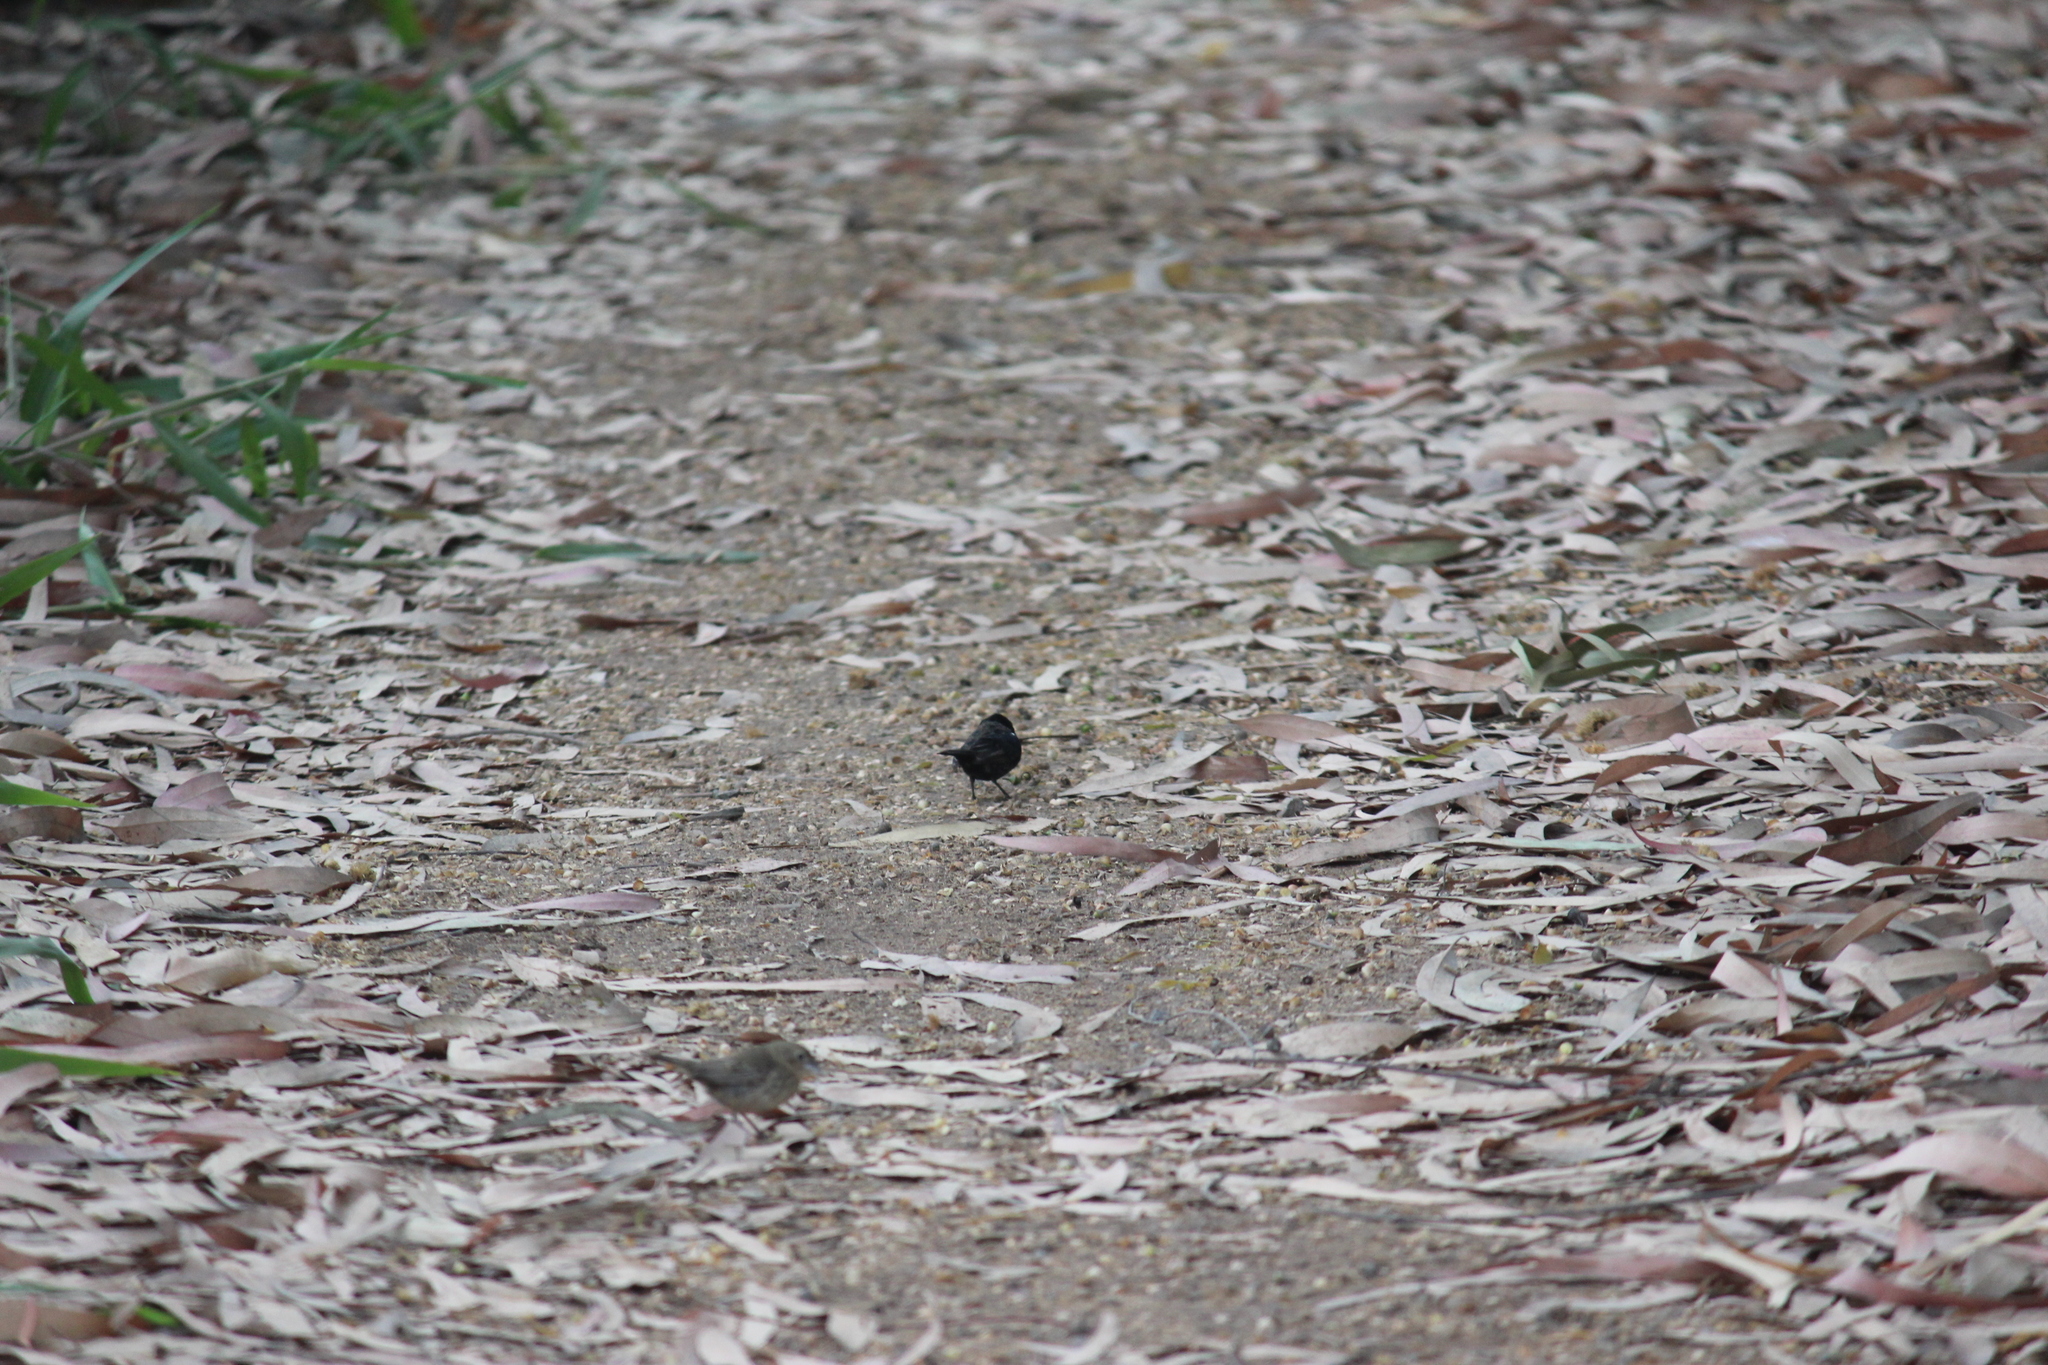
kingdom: Animalia
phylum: Chordata
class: Aves
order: Passeriformes
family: Thraupidae
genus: Volatinia
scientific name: Volatinia jacarina
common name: Blue-black grassquit
